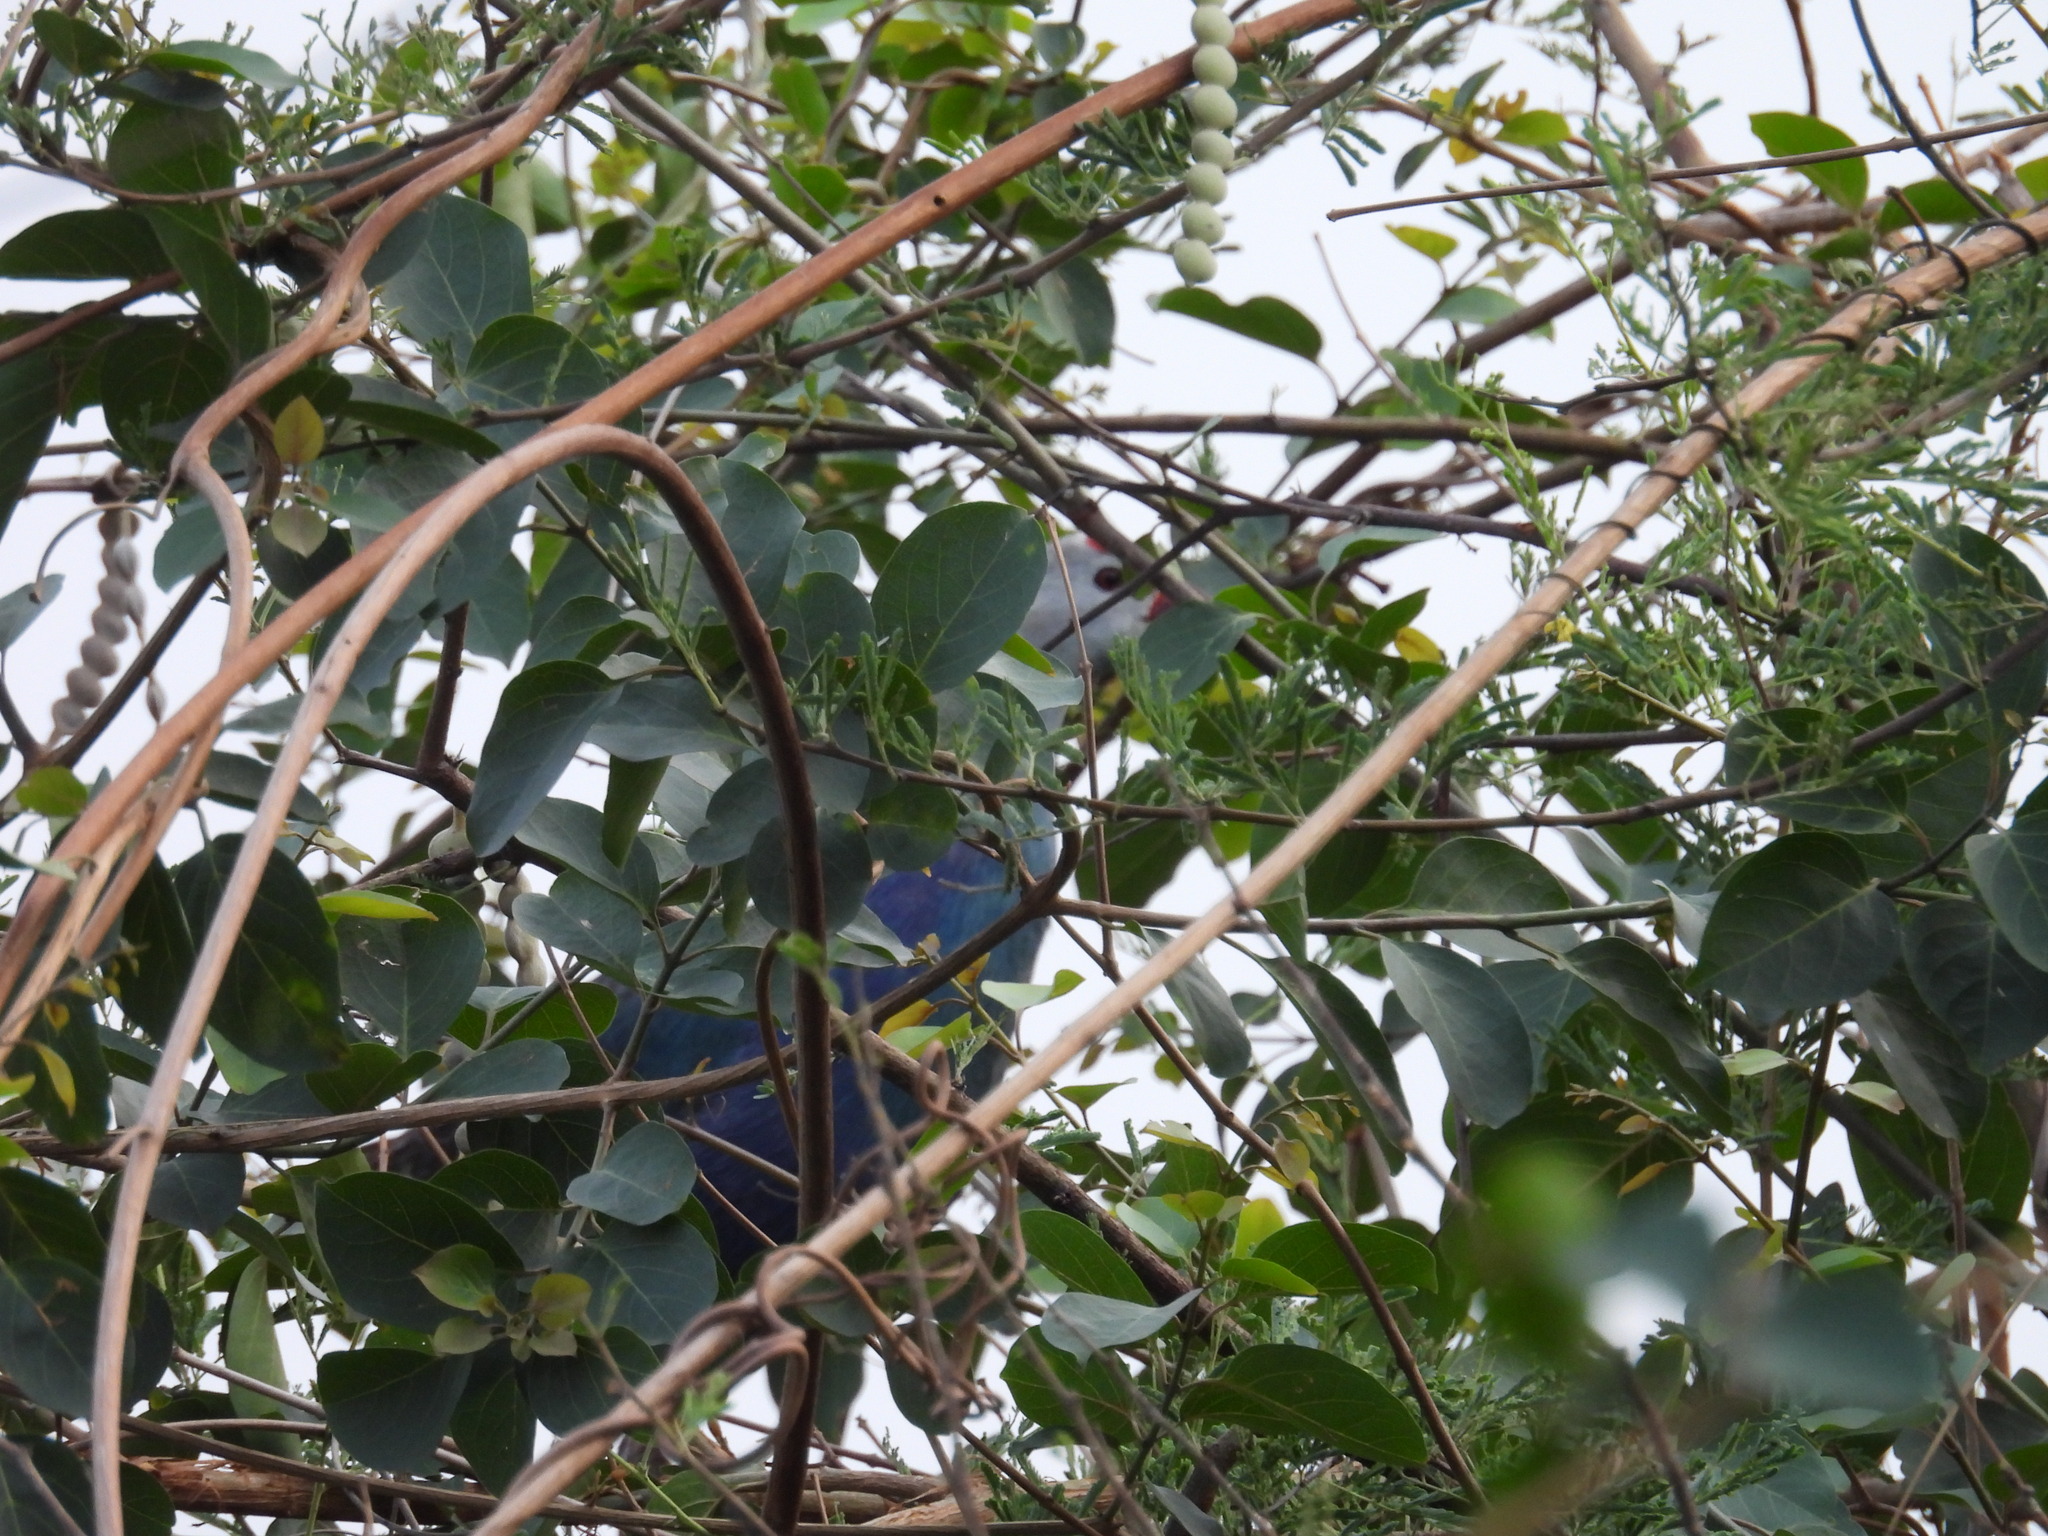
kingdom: Animalia
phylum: Chordata
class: Aves
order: Gruiformes
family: Rallidae
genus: Porphyrio
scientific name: Porphyrio porphyrio
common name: Purple swamphen
